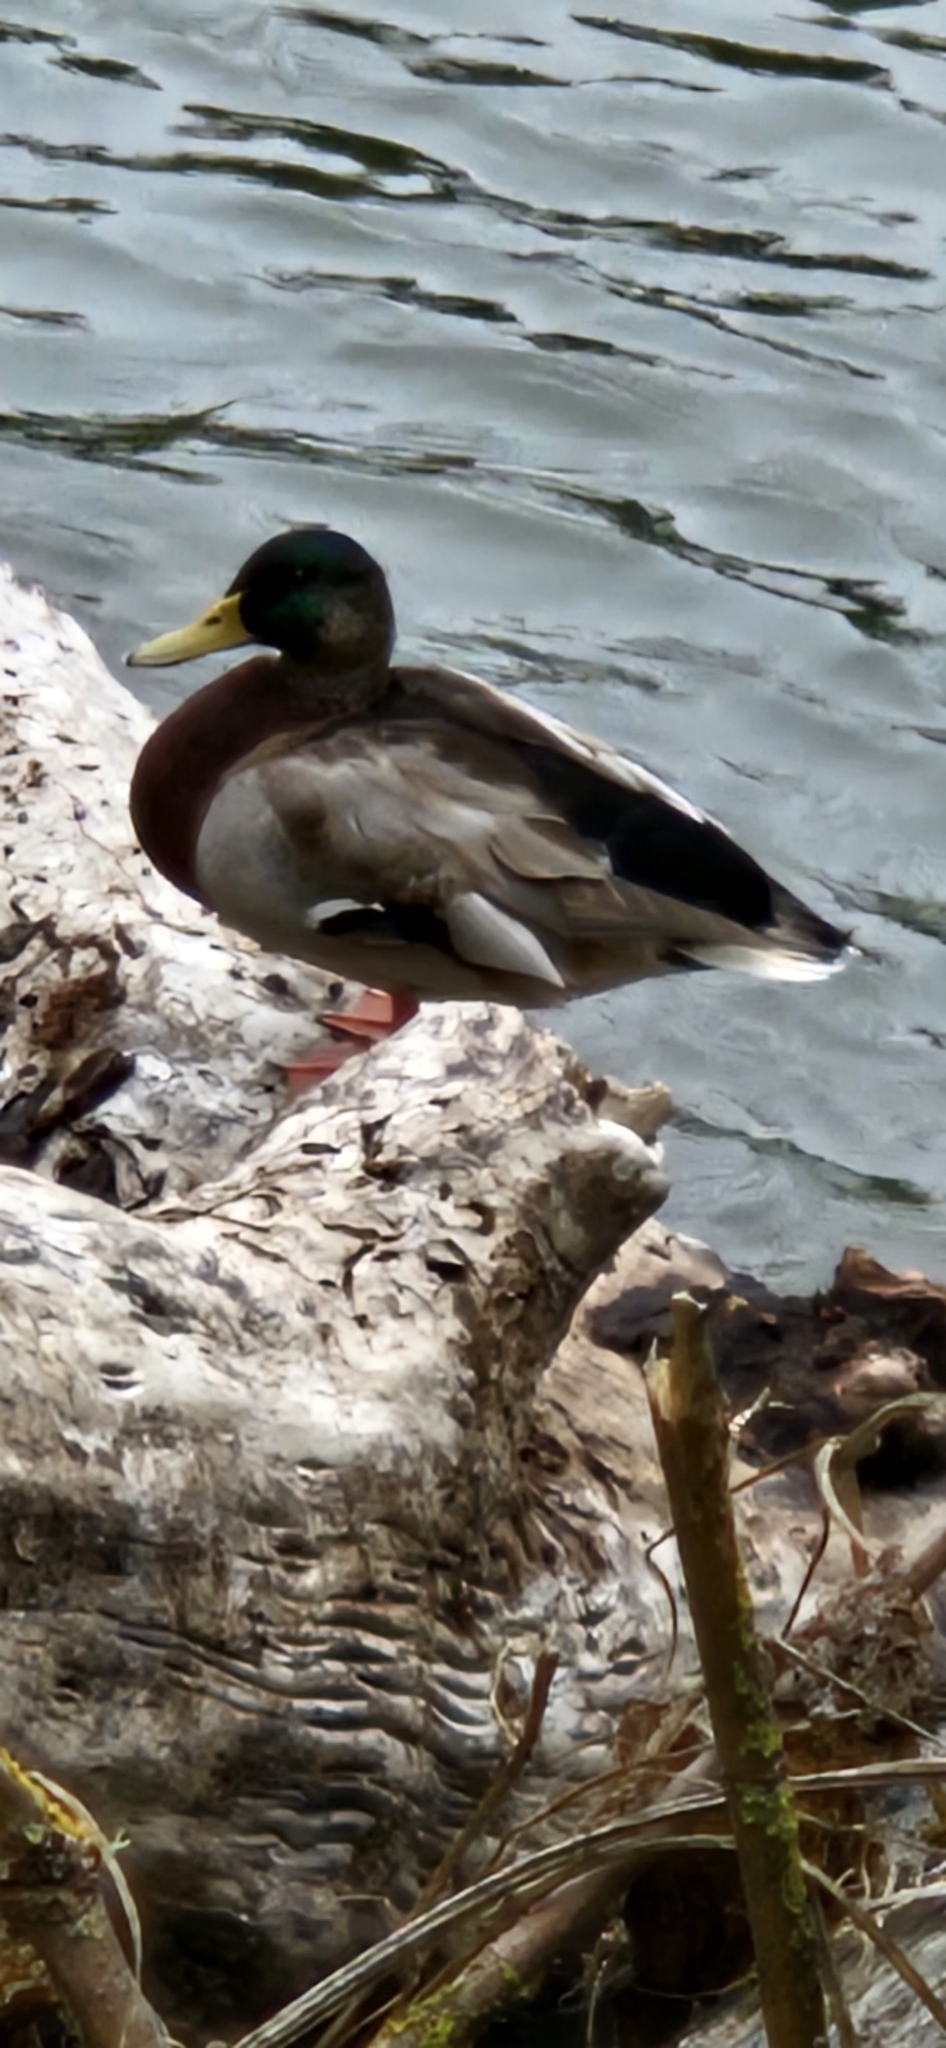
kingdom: Animalia
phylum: Chordata
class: Aves
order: Anseriformes
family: Anatidae
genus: Anas
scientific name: Anas platyrhynchos
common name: Mallard
